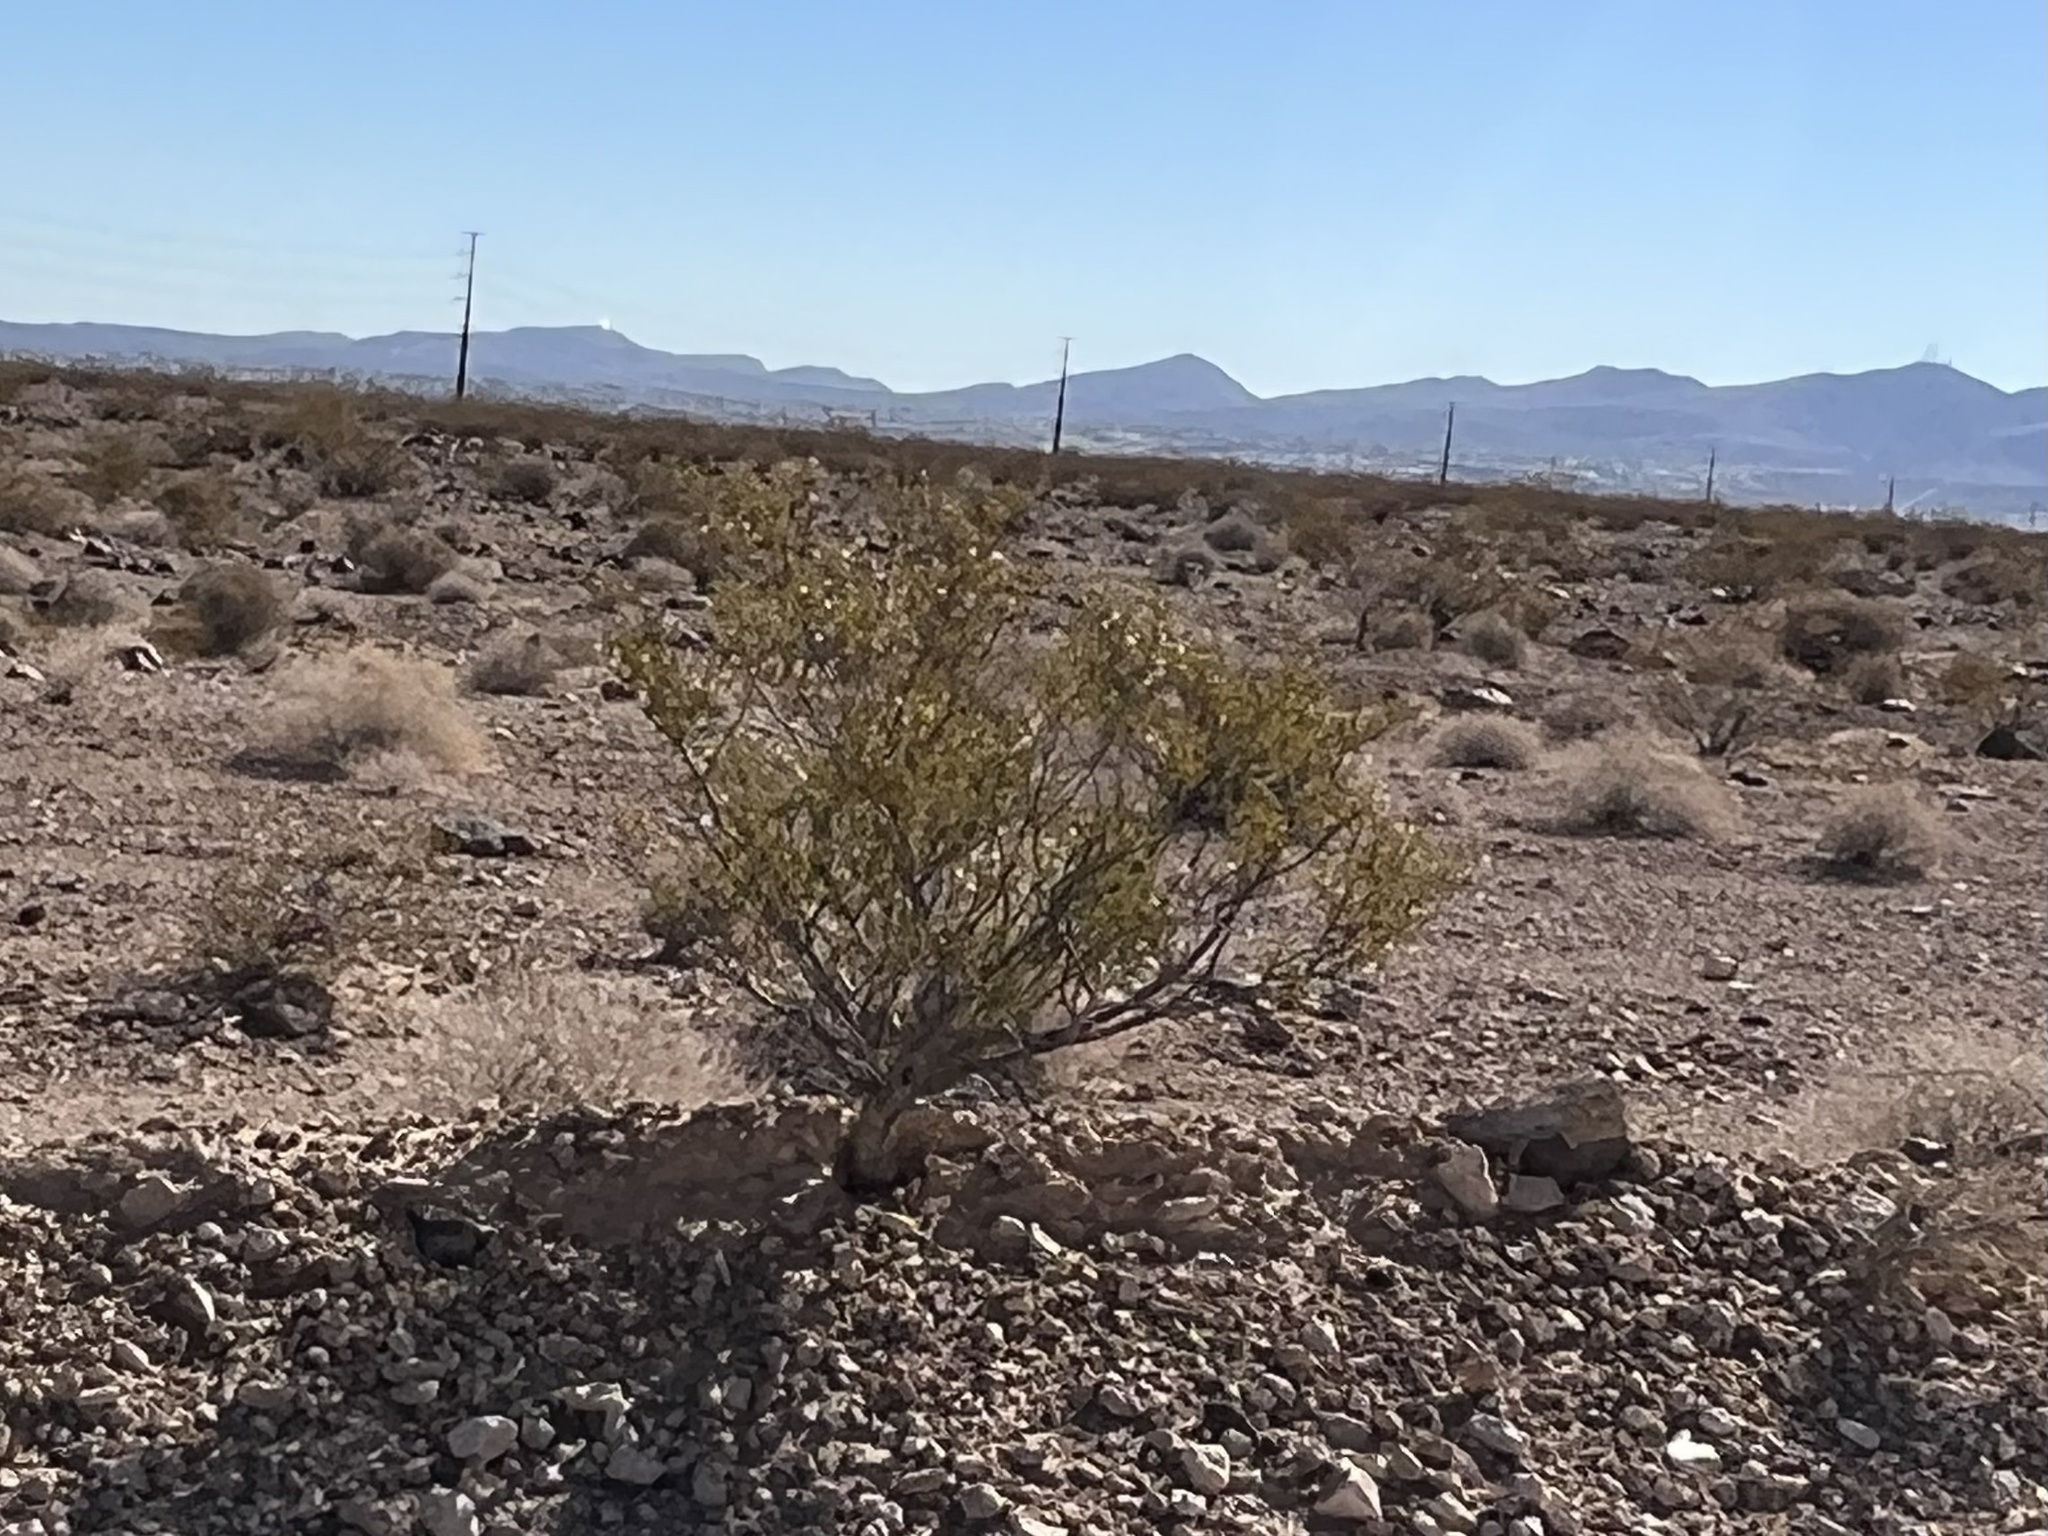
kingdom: Plantae
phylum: Tracheophyta
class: Magnoliopsida
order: Zygophyllales
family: Zygophyllaceae
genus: Larrea
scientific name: Larrea tridentata
